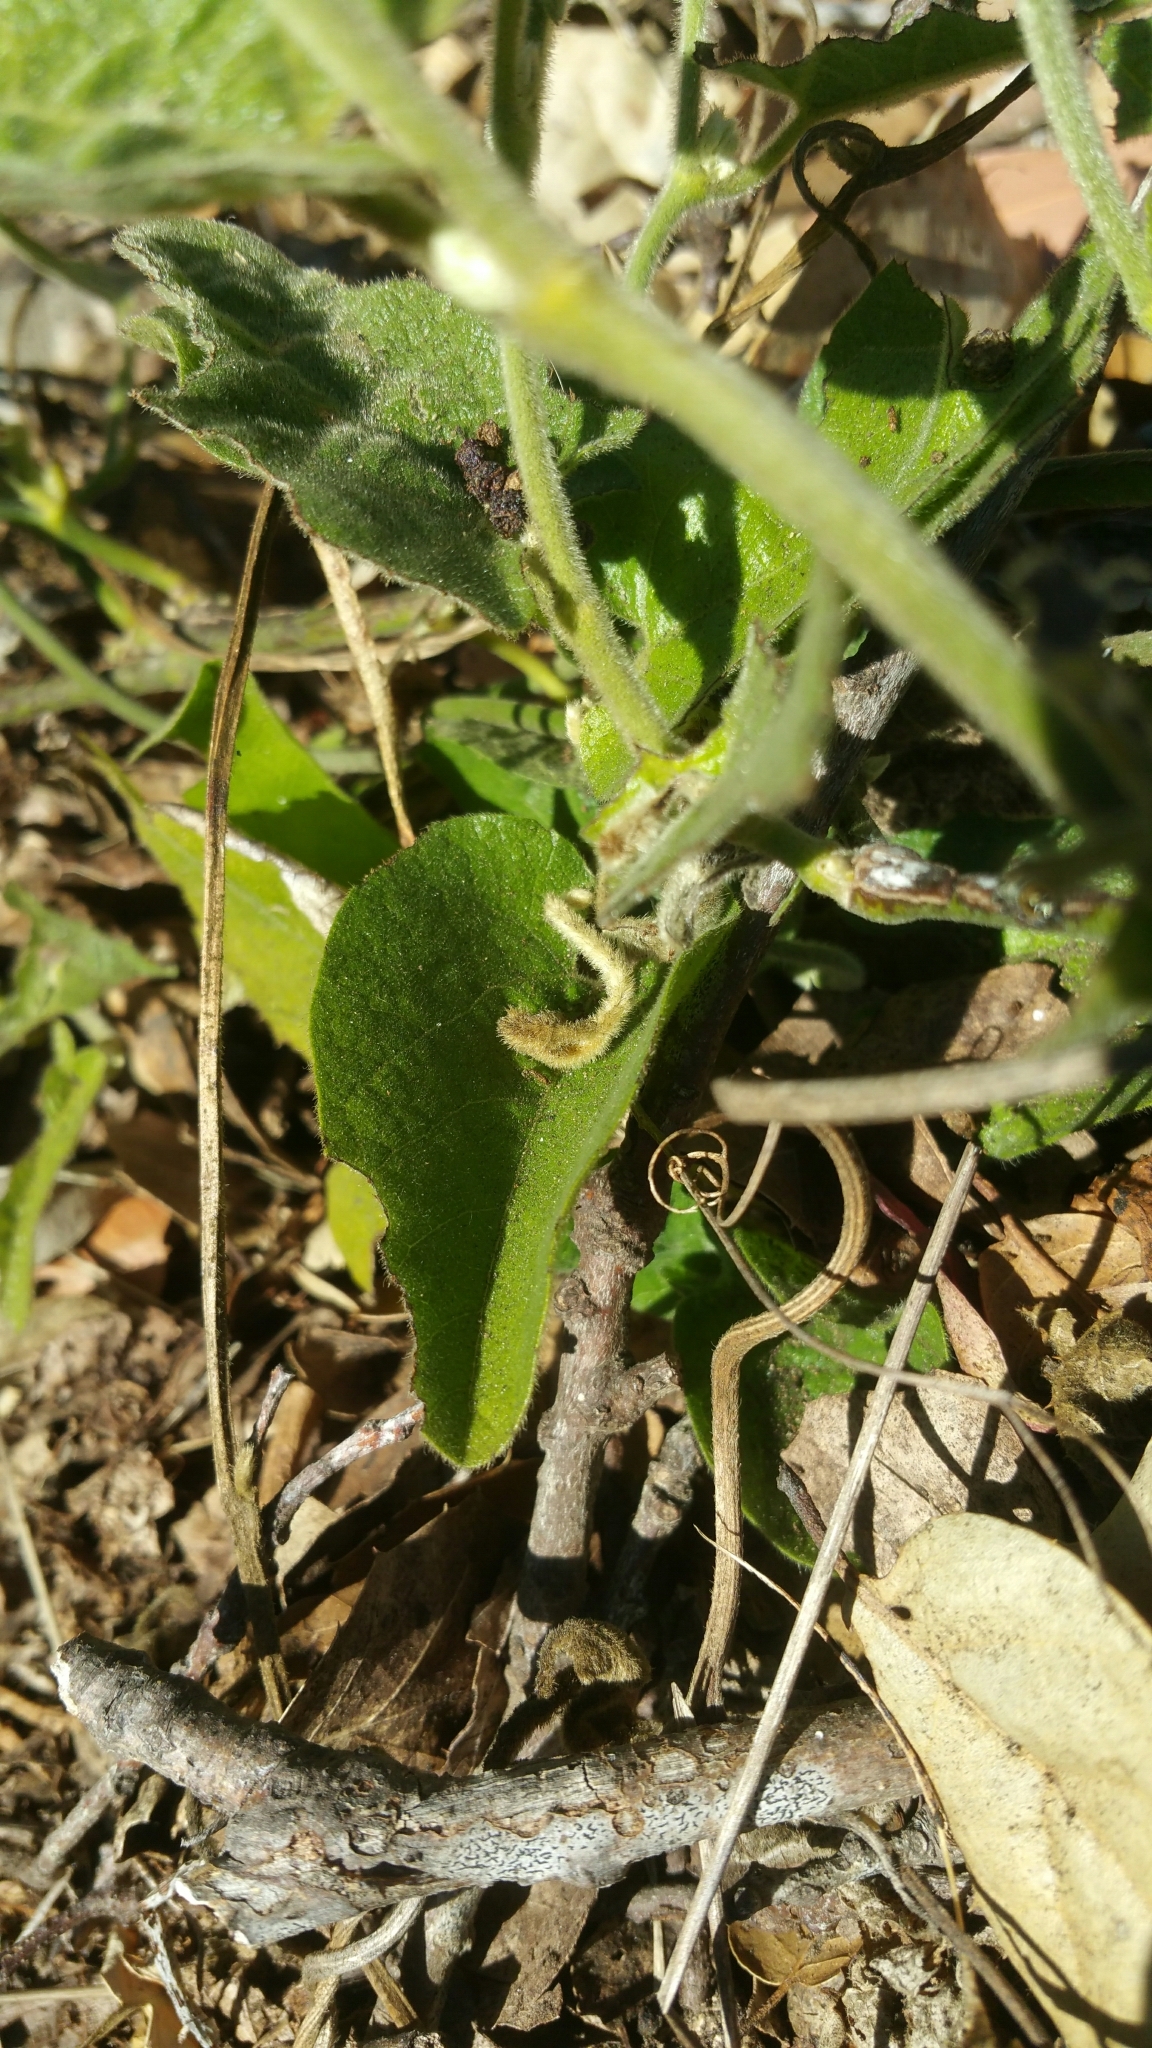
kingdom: Plantae
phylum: Tracheophyta
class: Magnoliopsida
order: Piperales
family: Aristolochiaceae
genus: Isotrema
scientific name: Isotrema californicum
